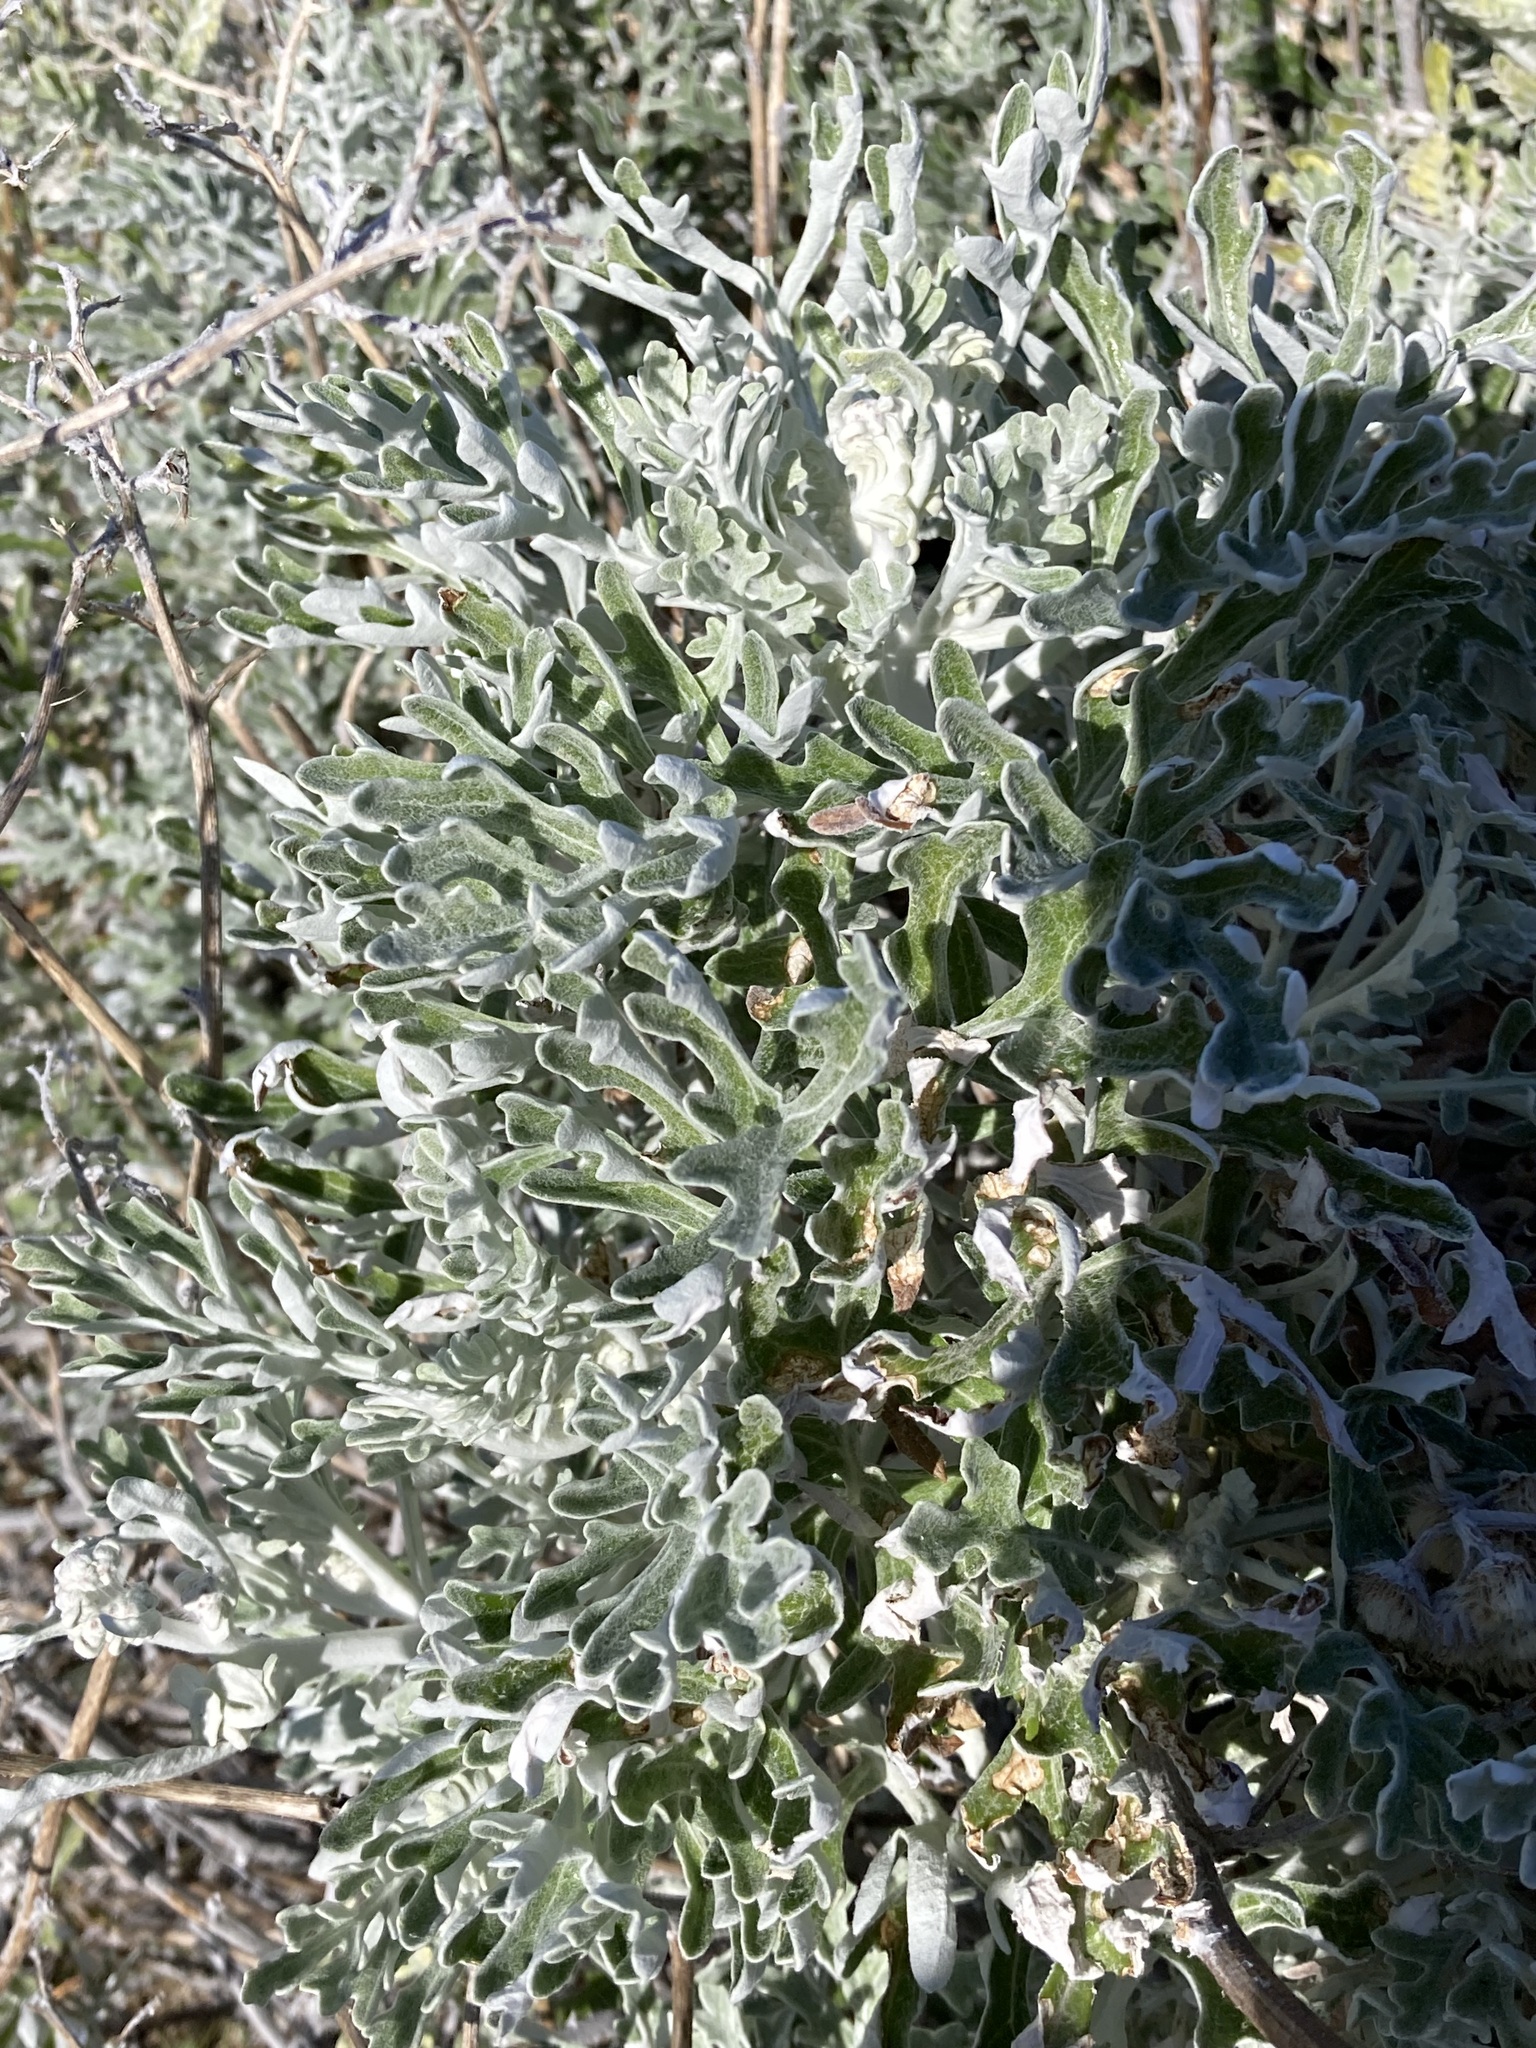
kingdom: Plantae
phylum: Tracheophyta
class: Magnoliopsida
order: Asterales
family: Asteraceae
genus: Jacobaea
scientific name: Jacobaea maritima
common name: Silver ragwort
